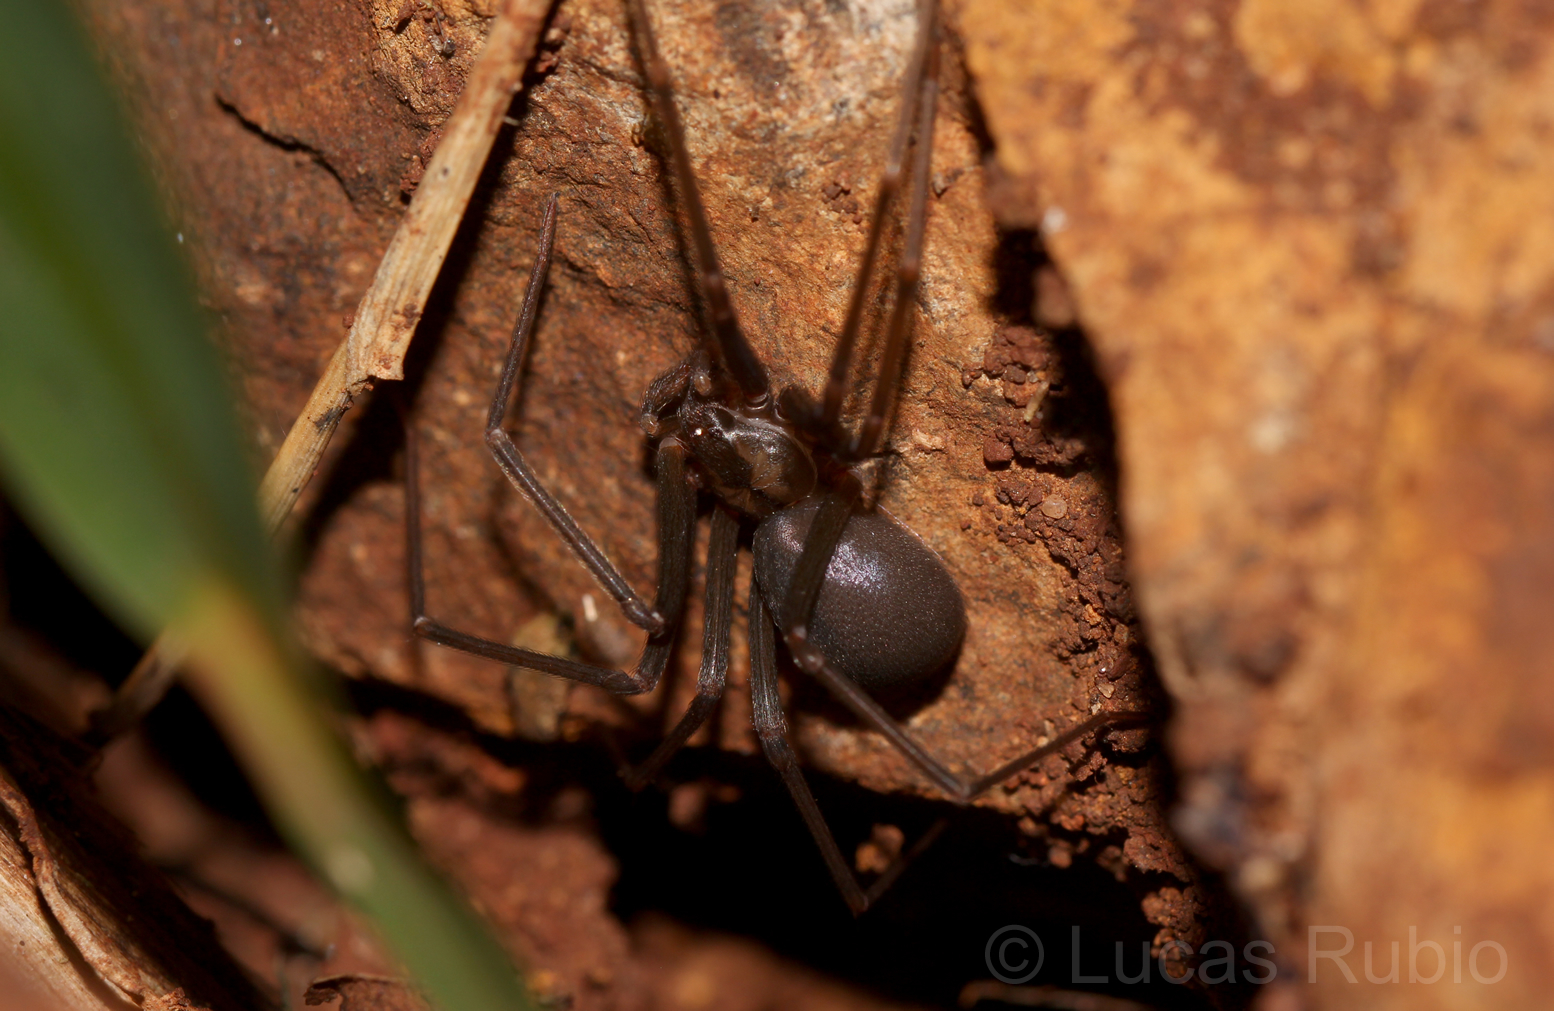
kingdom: Animalia
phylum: Arthropoda
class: Arachnida
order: Araneae
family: Sicariidae
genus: Loxosceles
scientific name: Loxosceles
